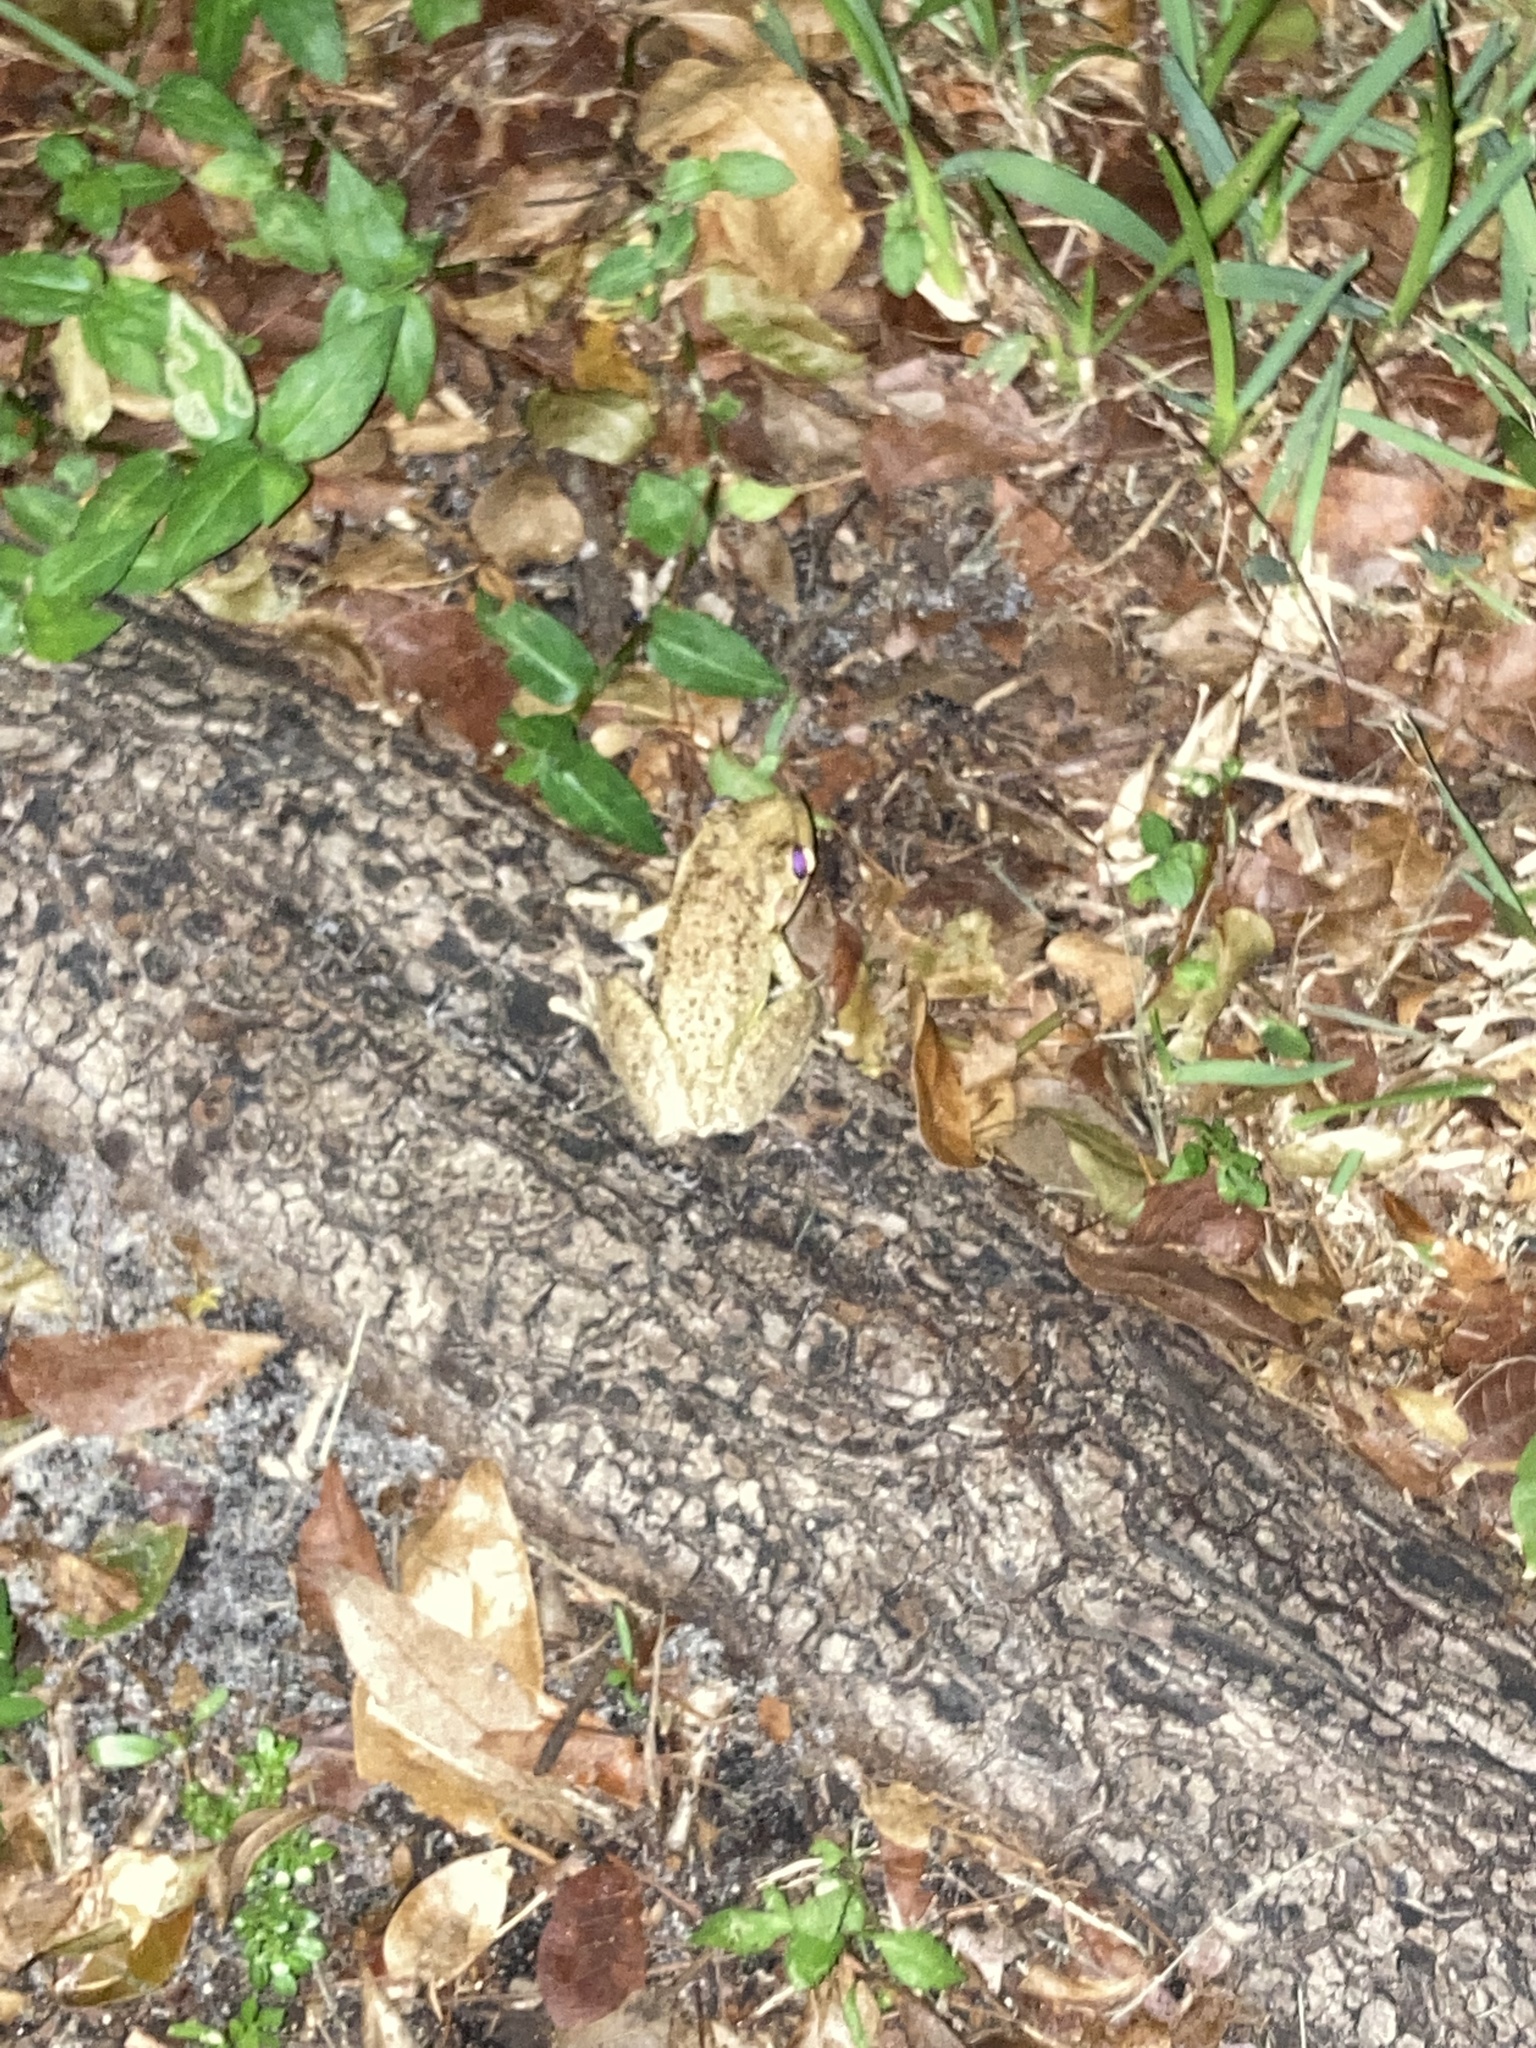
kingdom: Animalia
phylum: Chordata
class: Amphibia
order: Anura
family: Hylidae
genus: Osteopilus
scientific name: Osteopilus septentrionalis
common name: Cuban treefrog
